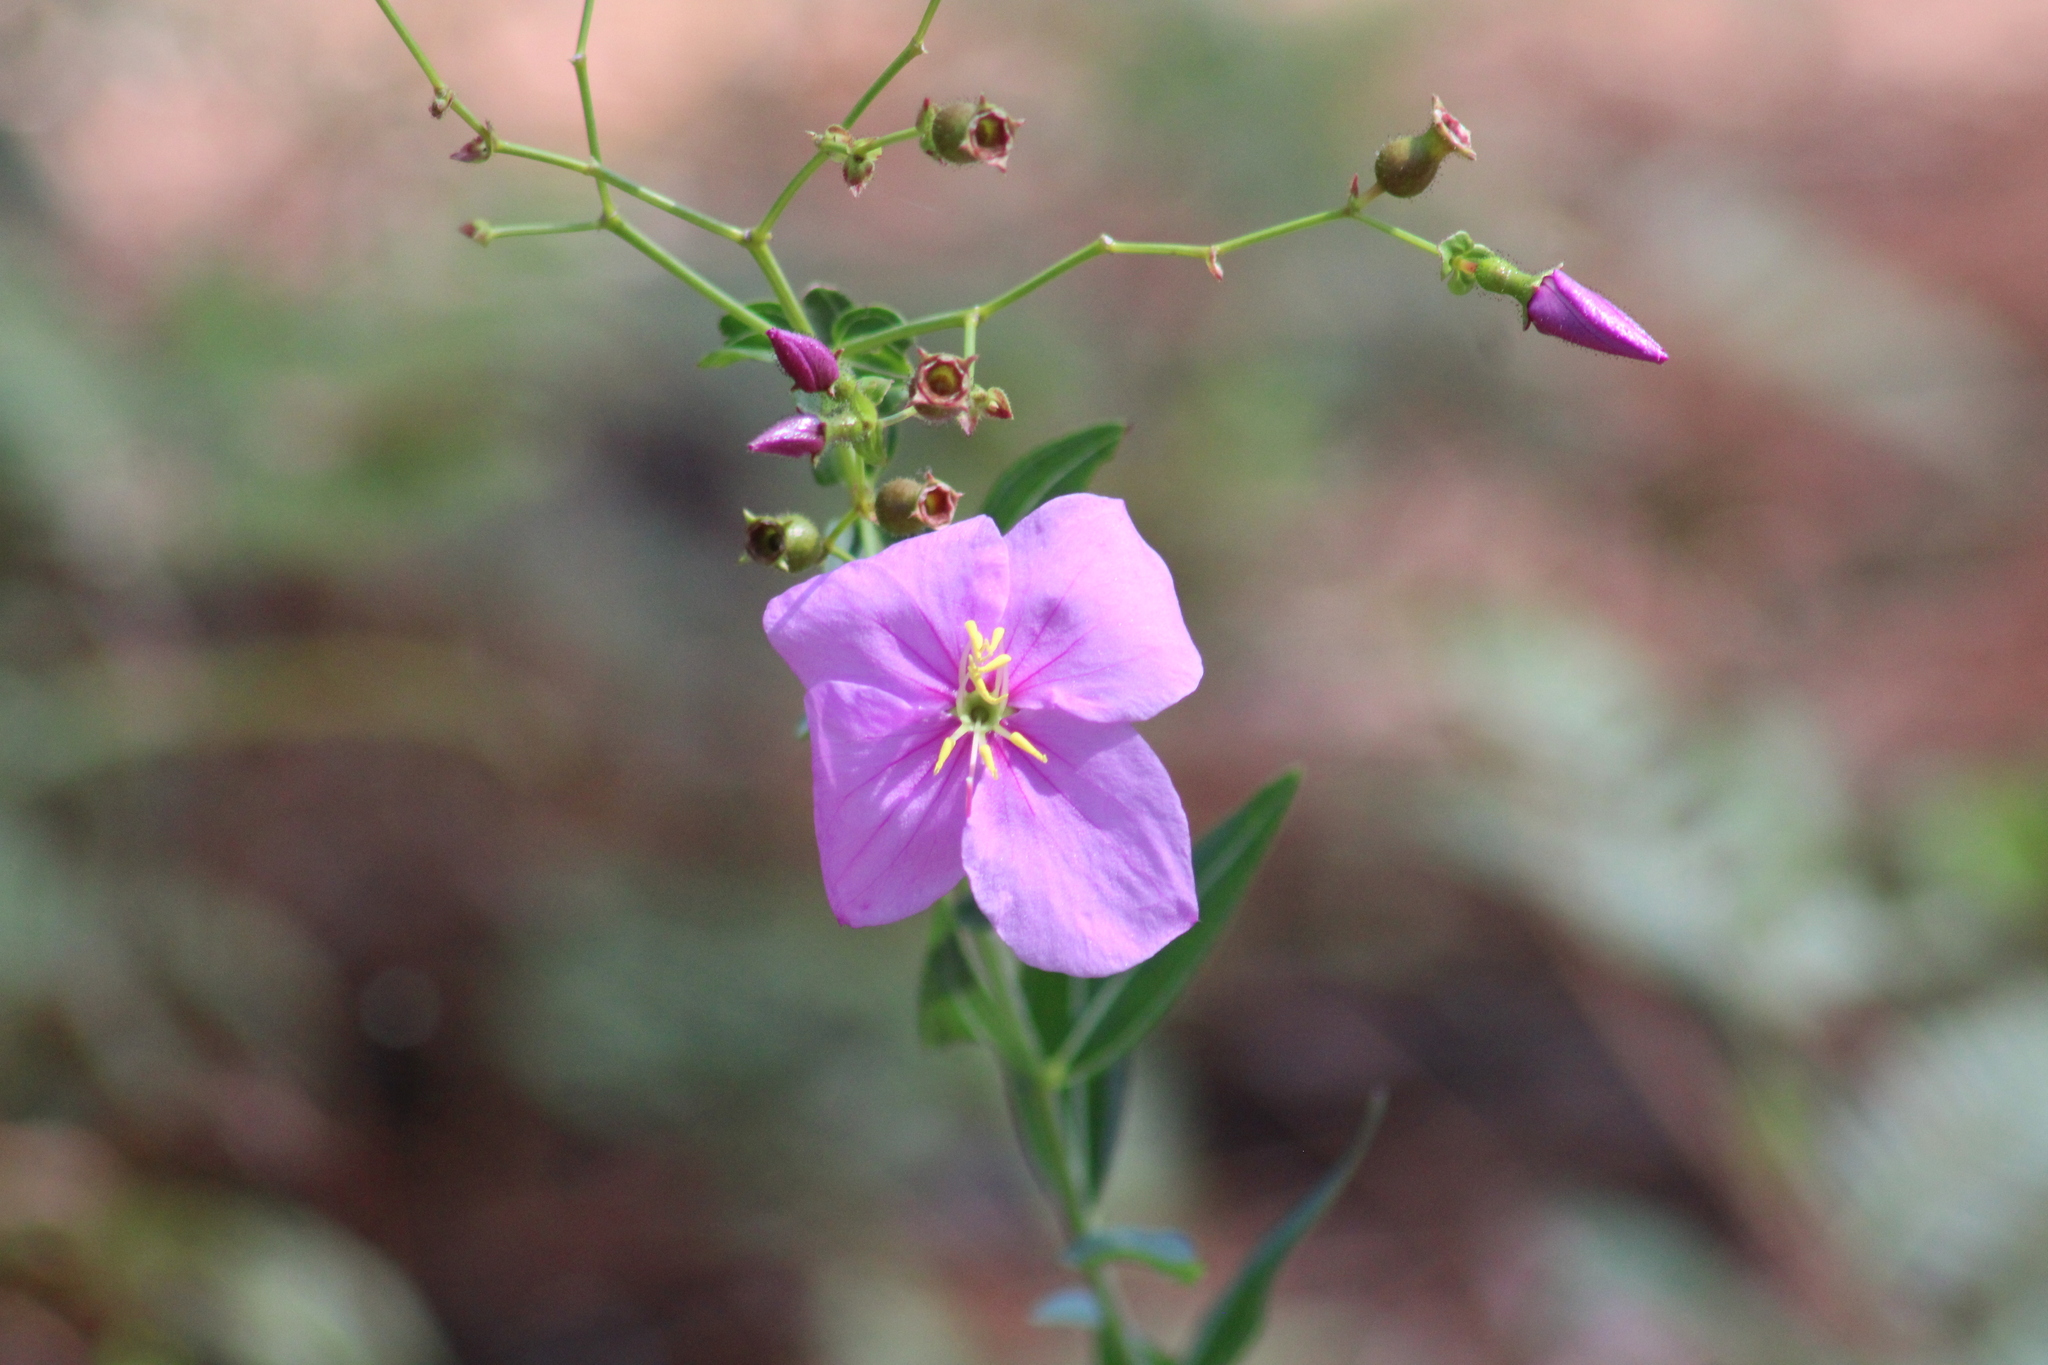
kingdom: Plantae
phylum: Tracheophyta
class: Magnoliopsida
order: Myrtales
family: Melastomataceae
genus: Rhexia
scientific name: Rhexia alifanus
